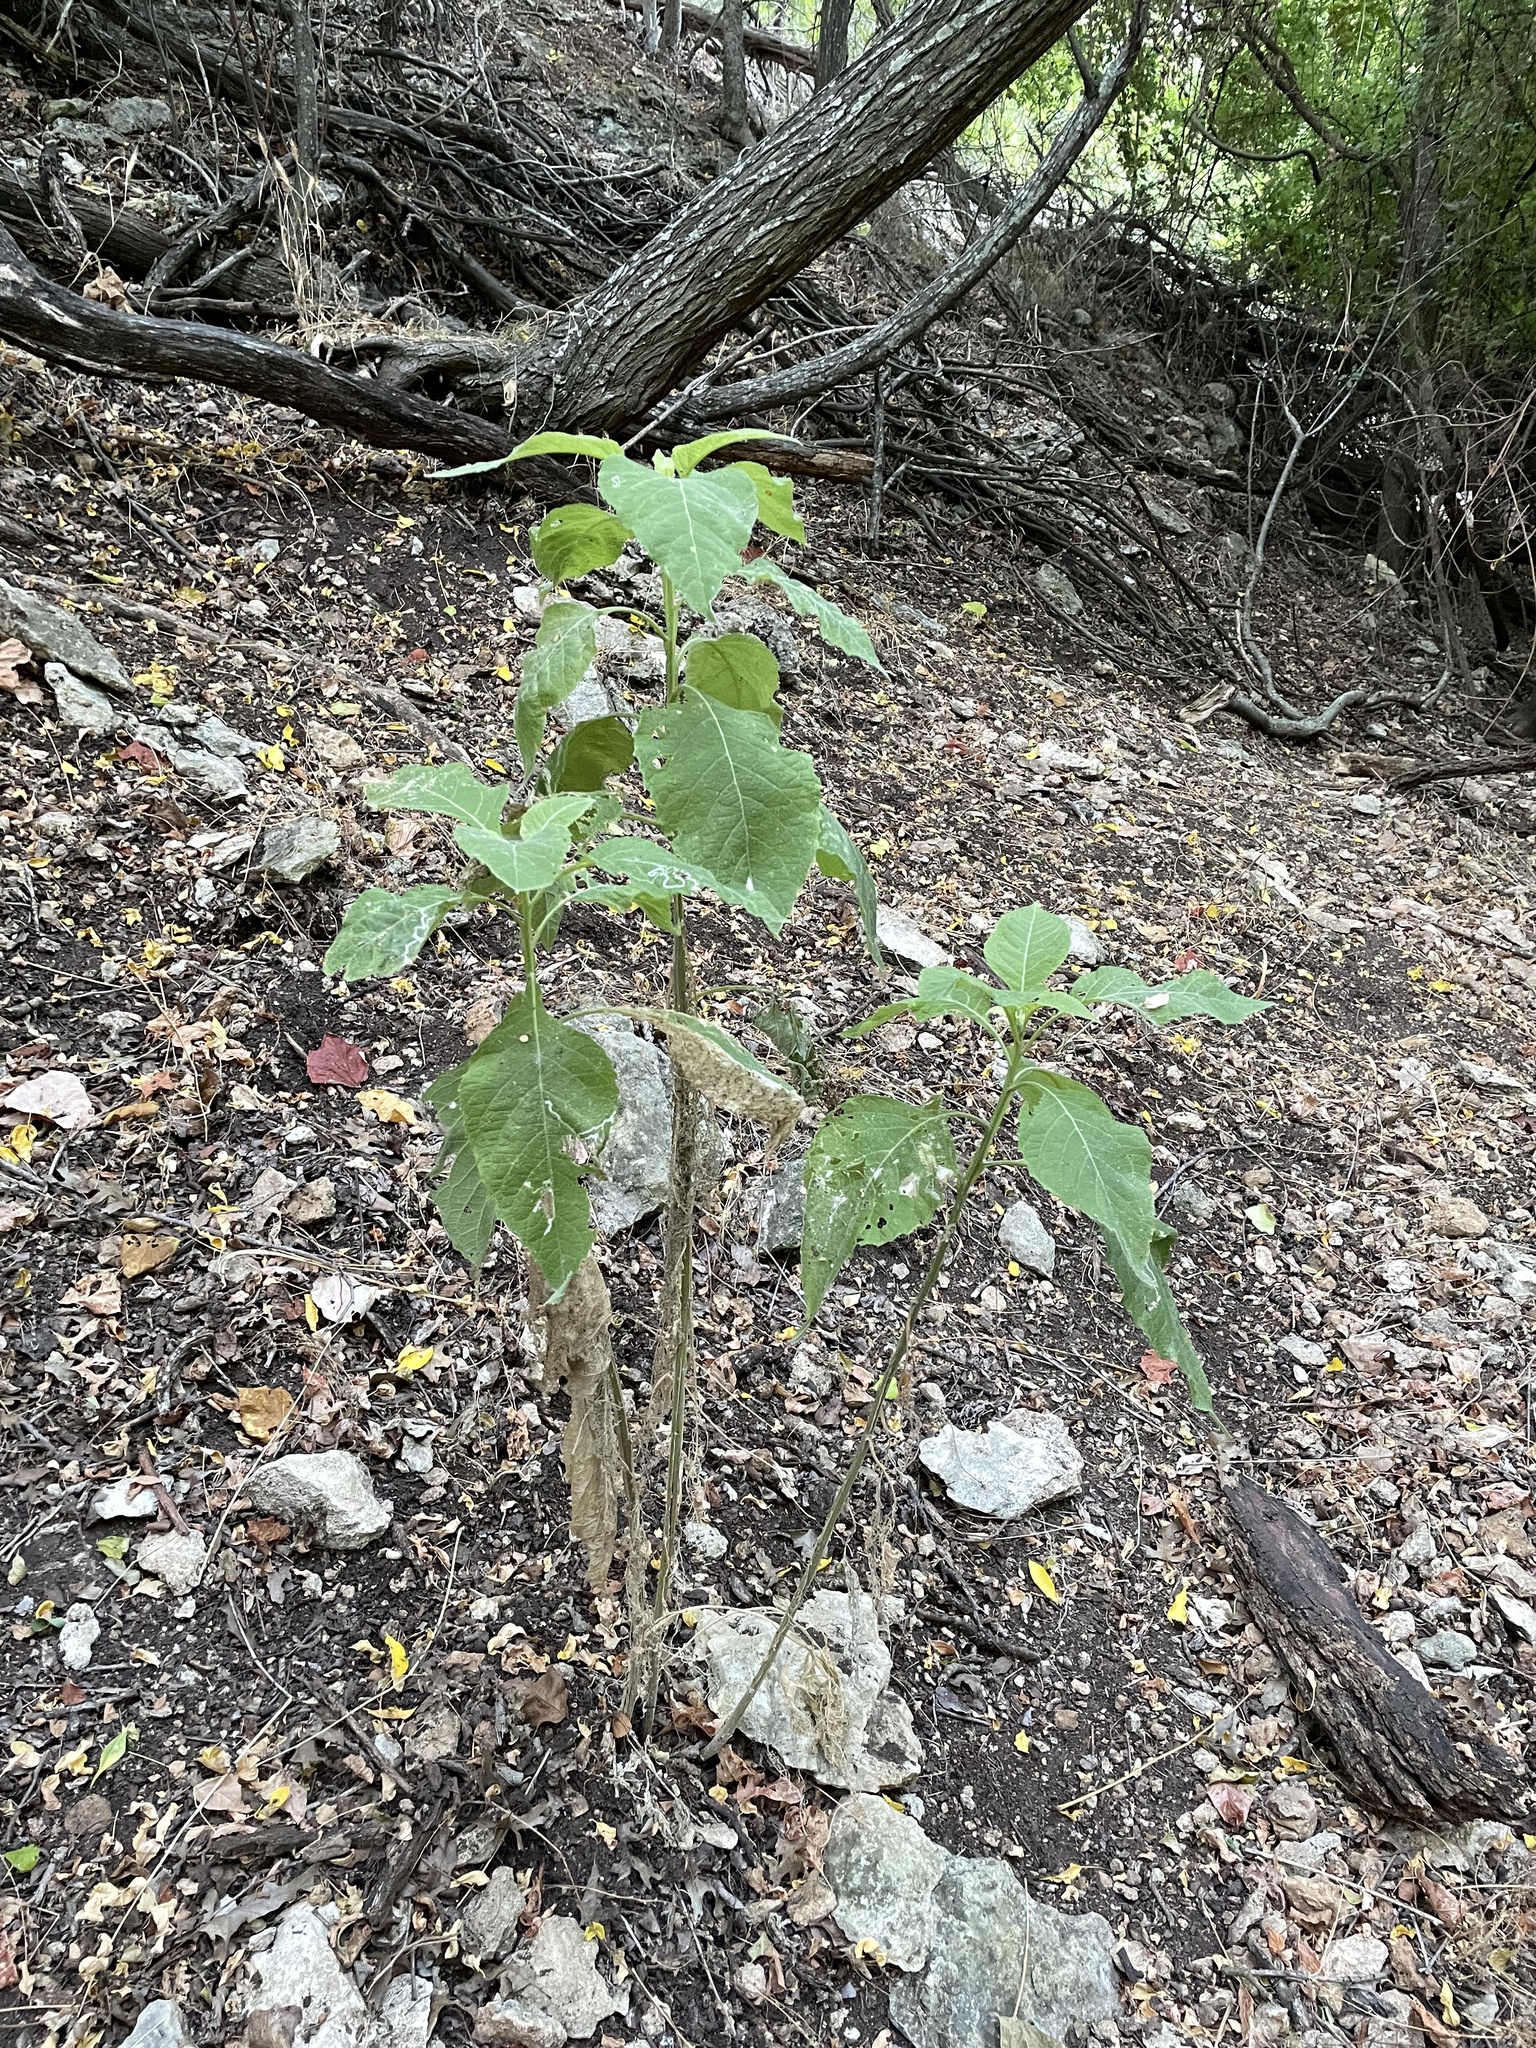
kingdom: Plantae
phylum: Tracheophyta
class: Magnoliopsida
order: Asterales
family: Asteraceae
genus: Verbesina
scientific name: Verbesina virginica
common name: Frostweed
